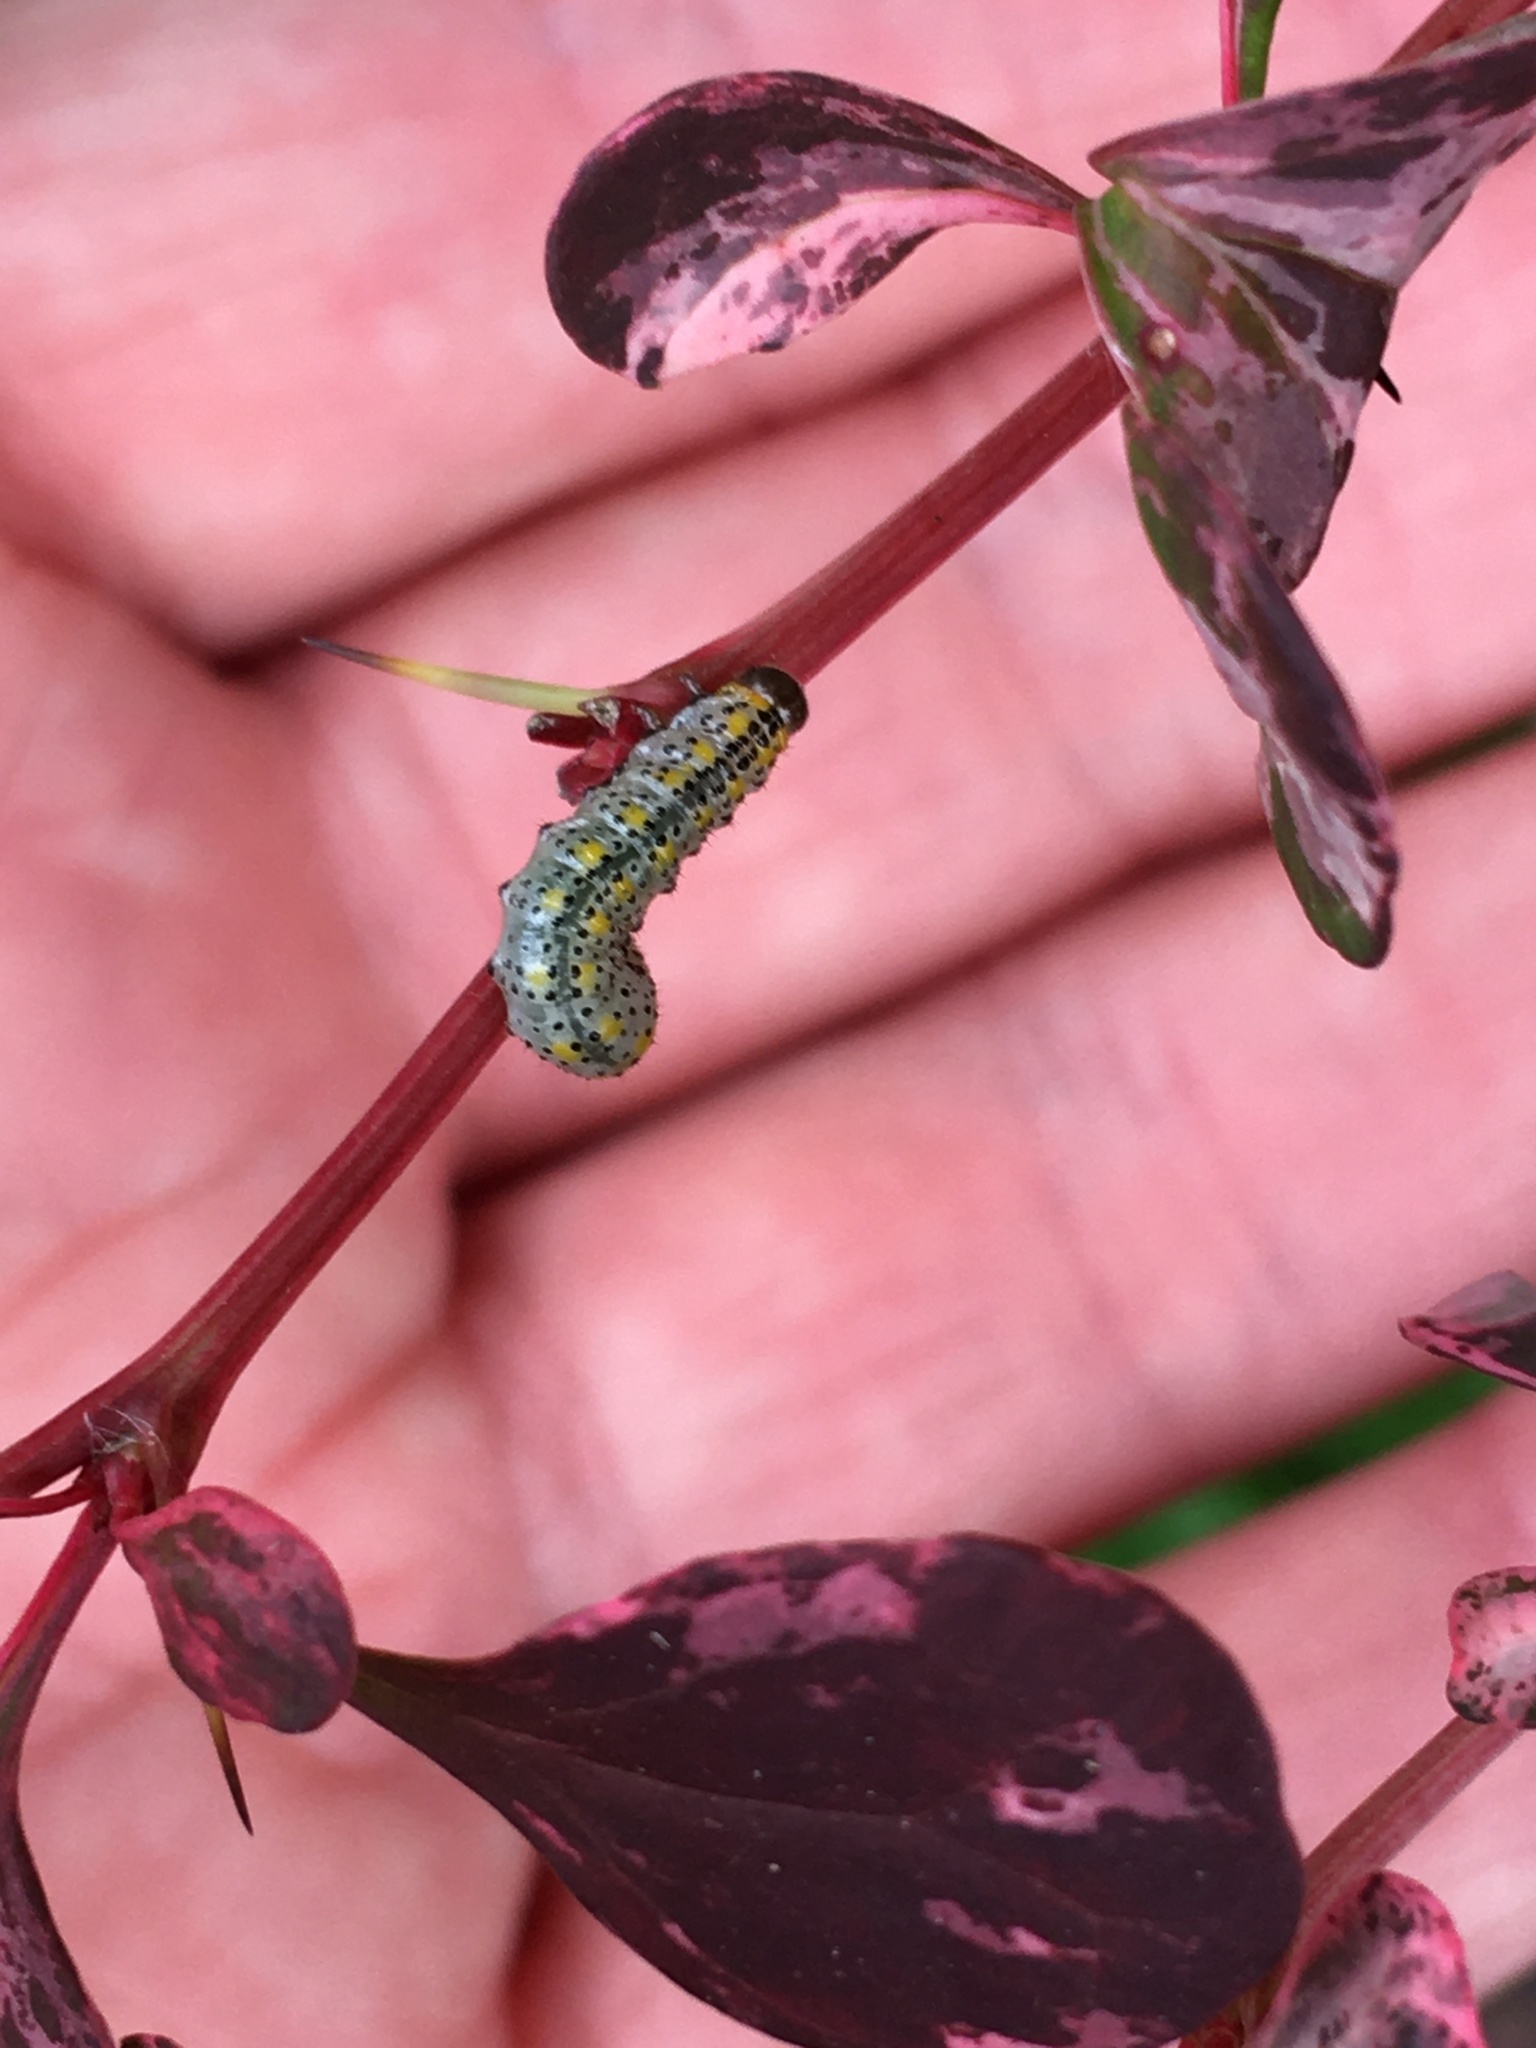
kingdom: Animalia
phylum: Arthropoda
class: Insecta
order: Hymenoptera
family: Argidae
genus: Arge
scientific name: Arge berberidis
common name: Berberis sawfly
